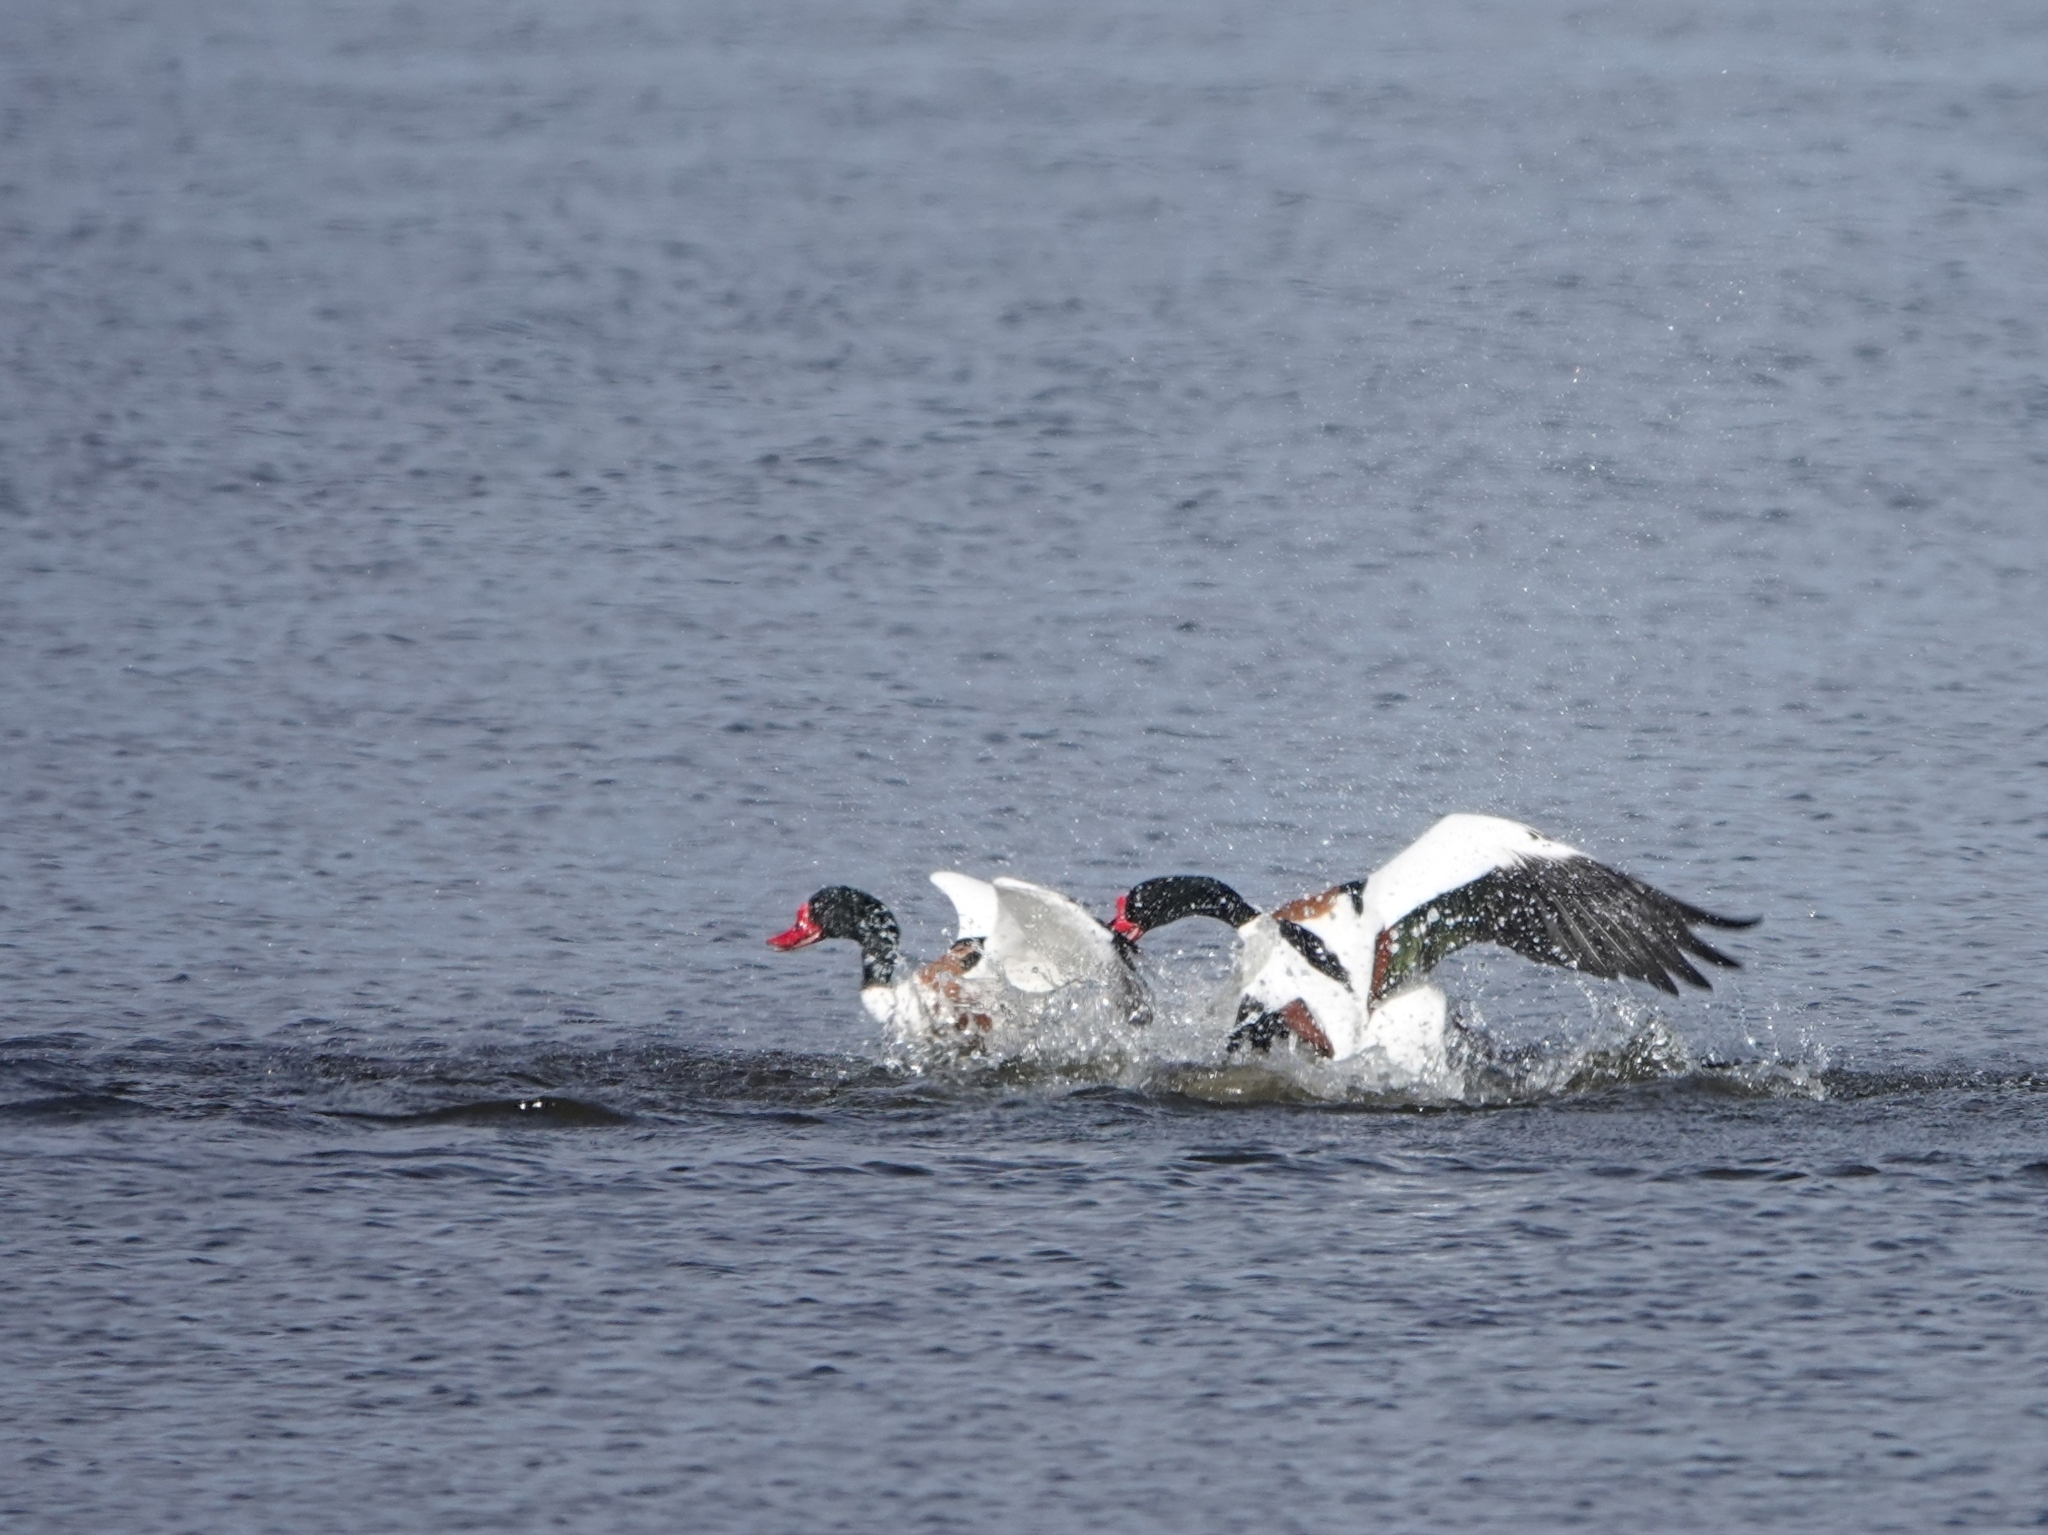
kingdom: Animalia
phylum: Chordata
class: Aves
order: Anseriformes
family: Anatidae
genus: Tadorna
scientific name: Tadorna tadorna
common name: Common shelduck
